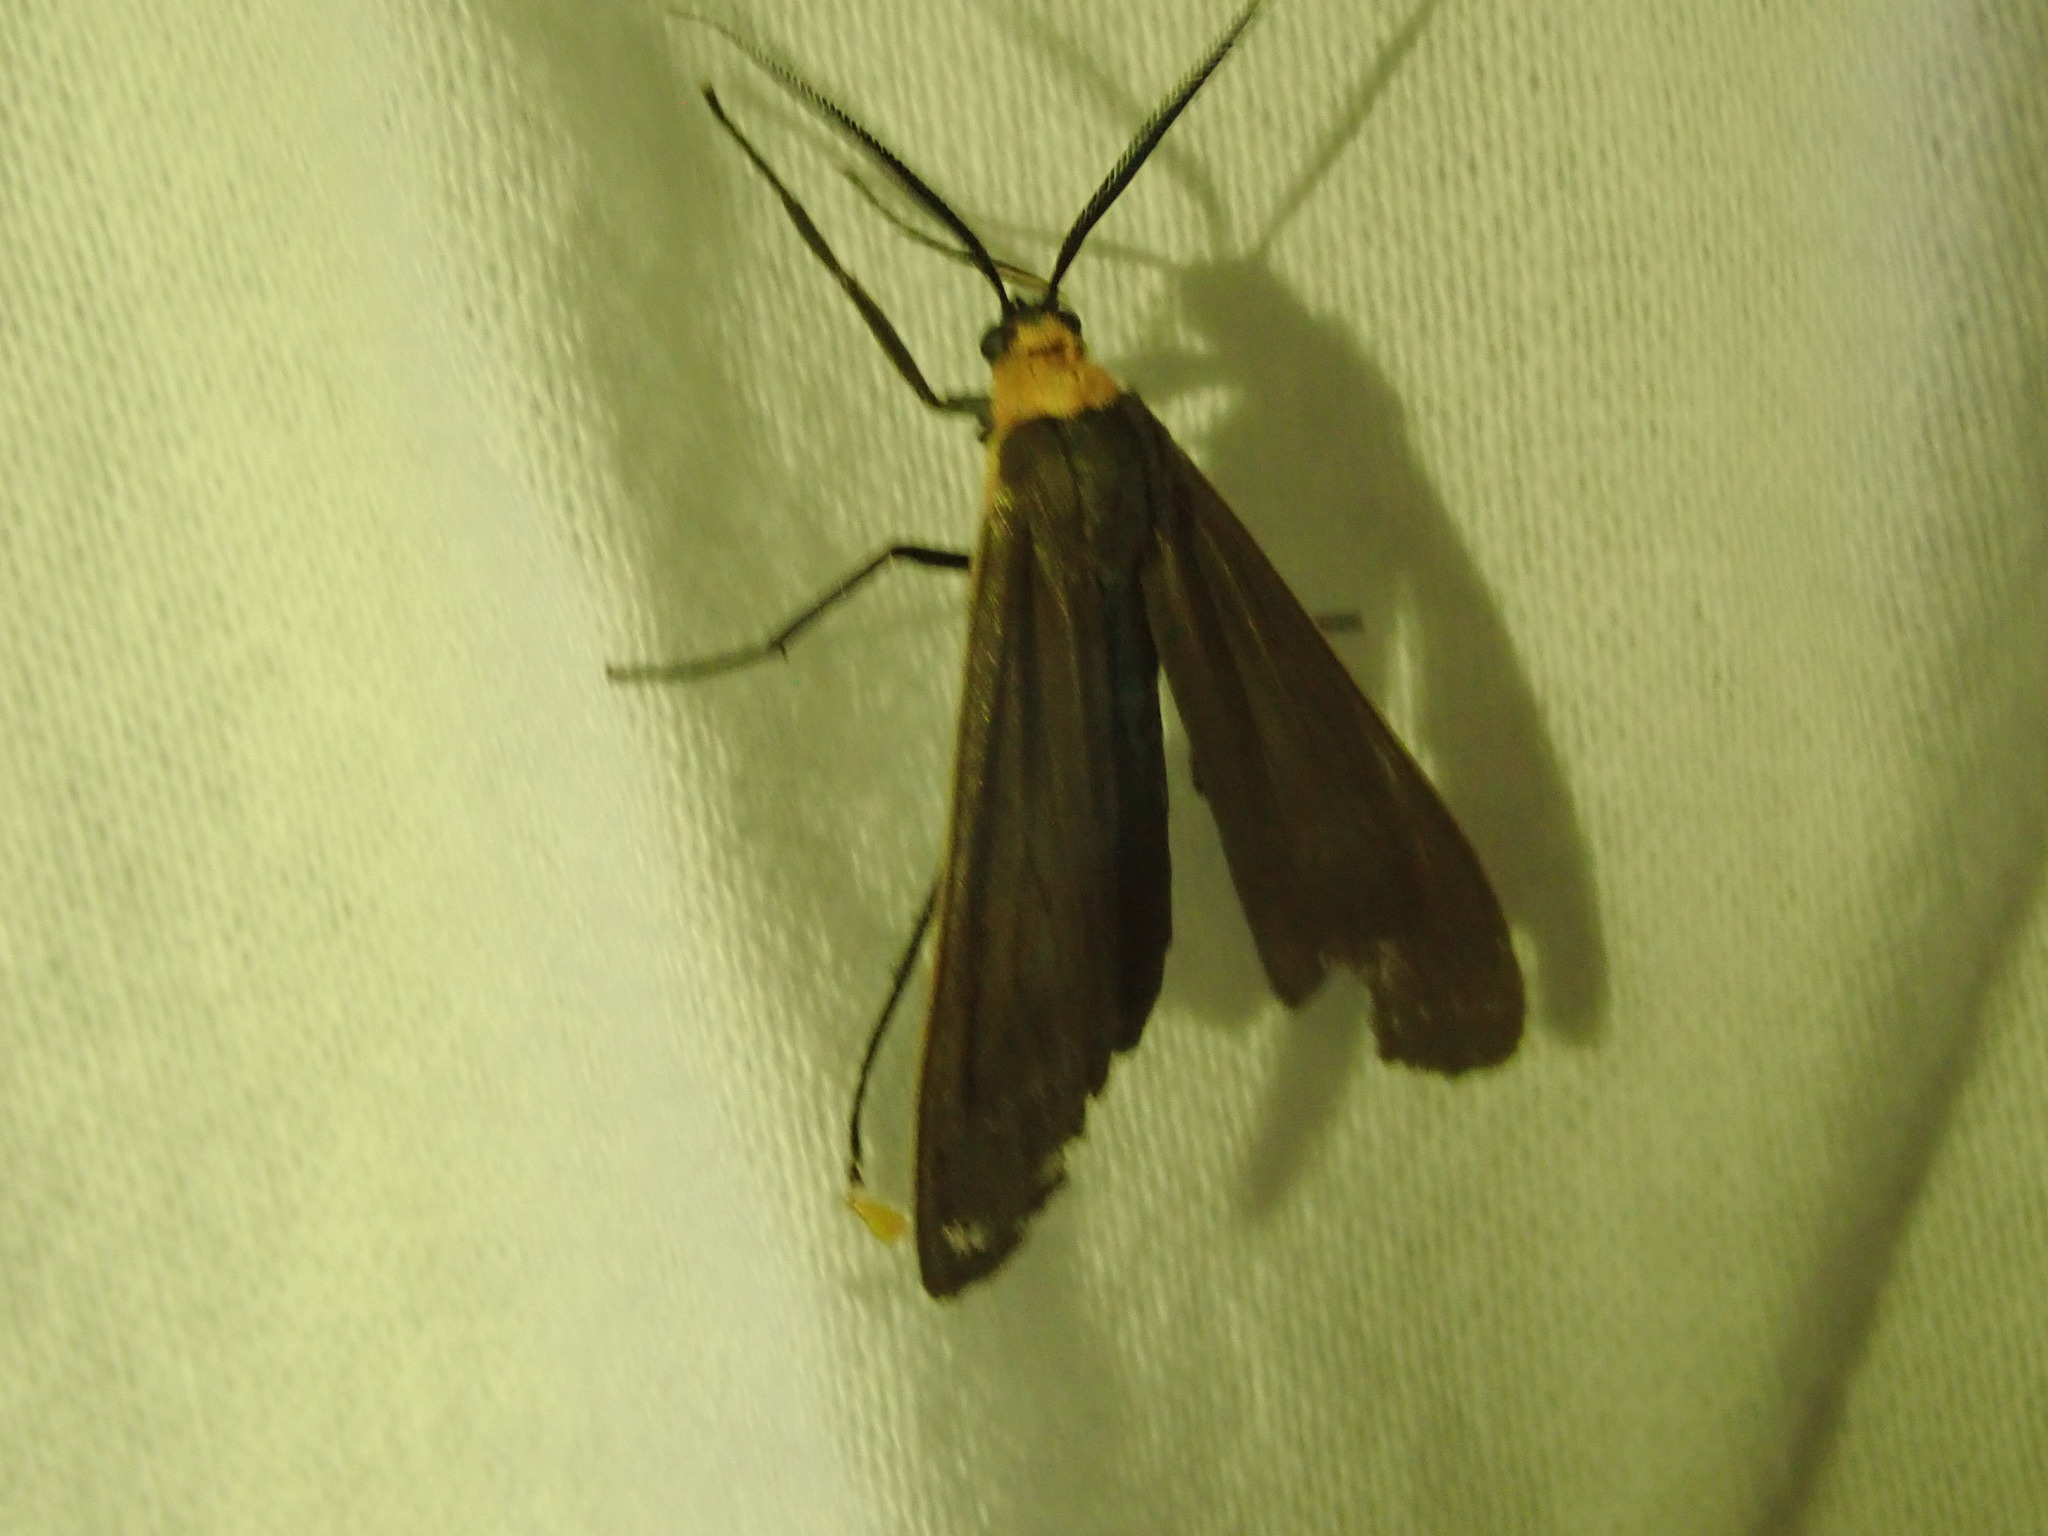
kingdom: Animalia
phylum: Arthropoda
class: Insecta
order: Lepidoptera
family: Erebidae
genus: Cisseps
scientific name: Cisseps fulvicollis
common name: Yellow-collared scape moth
